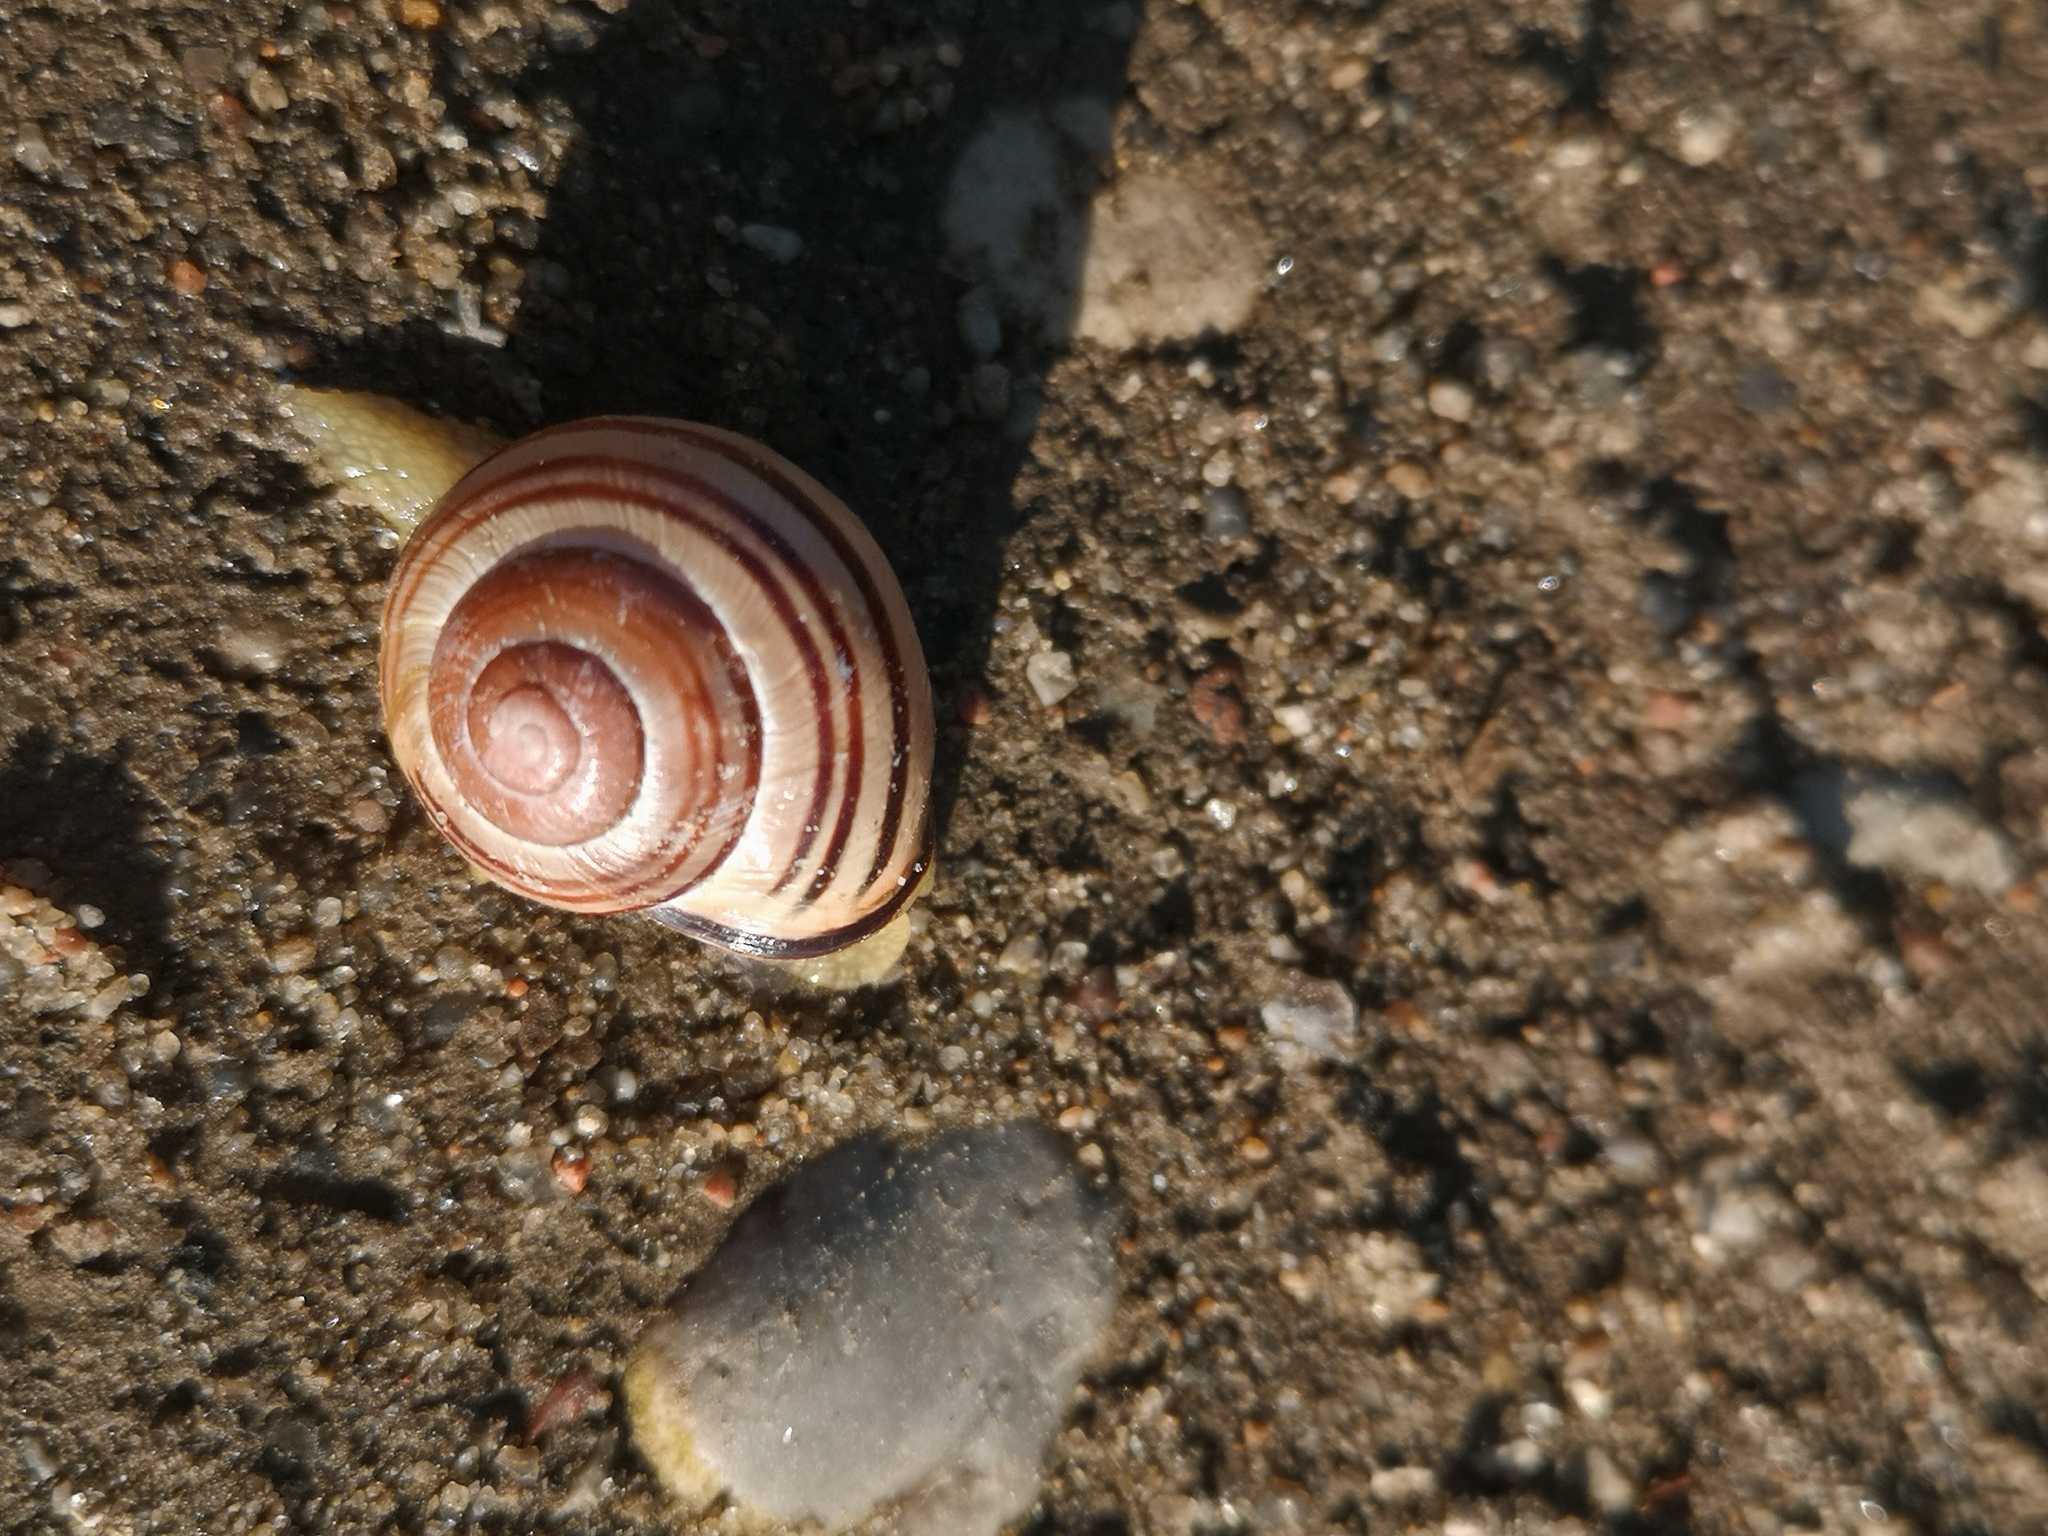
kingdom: Animalia
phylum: Mollusca
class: Gastropoda
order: Stylommatophora
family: Helicidae
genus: Cepaea
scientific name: Cepaea nemoralis
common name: Grovesnail
